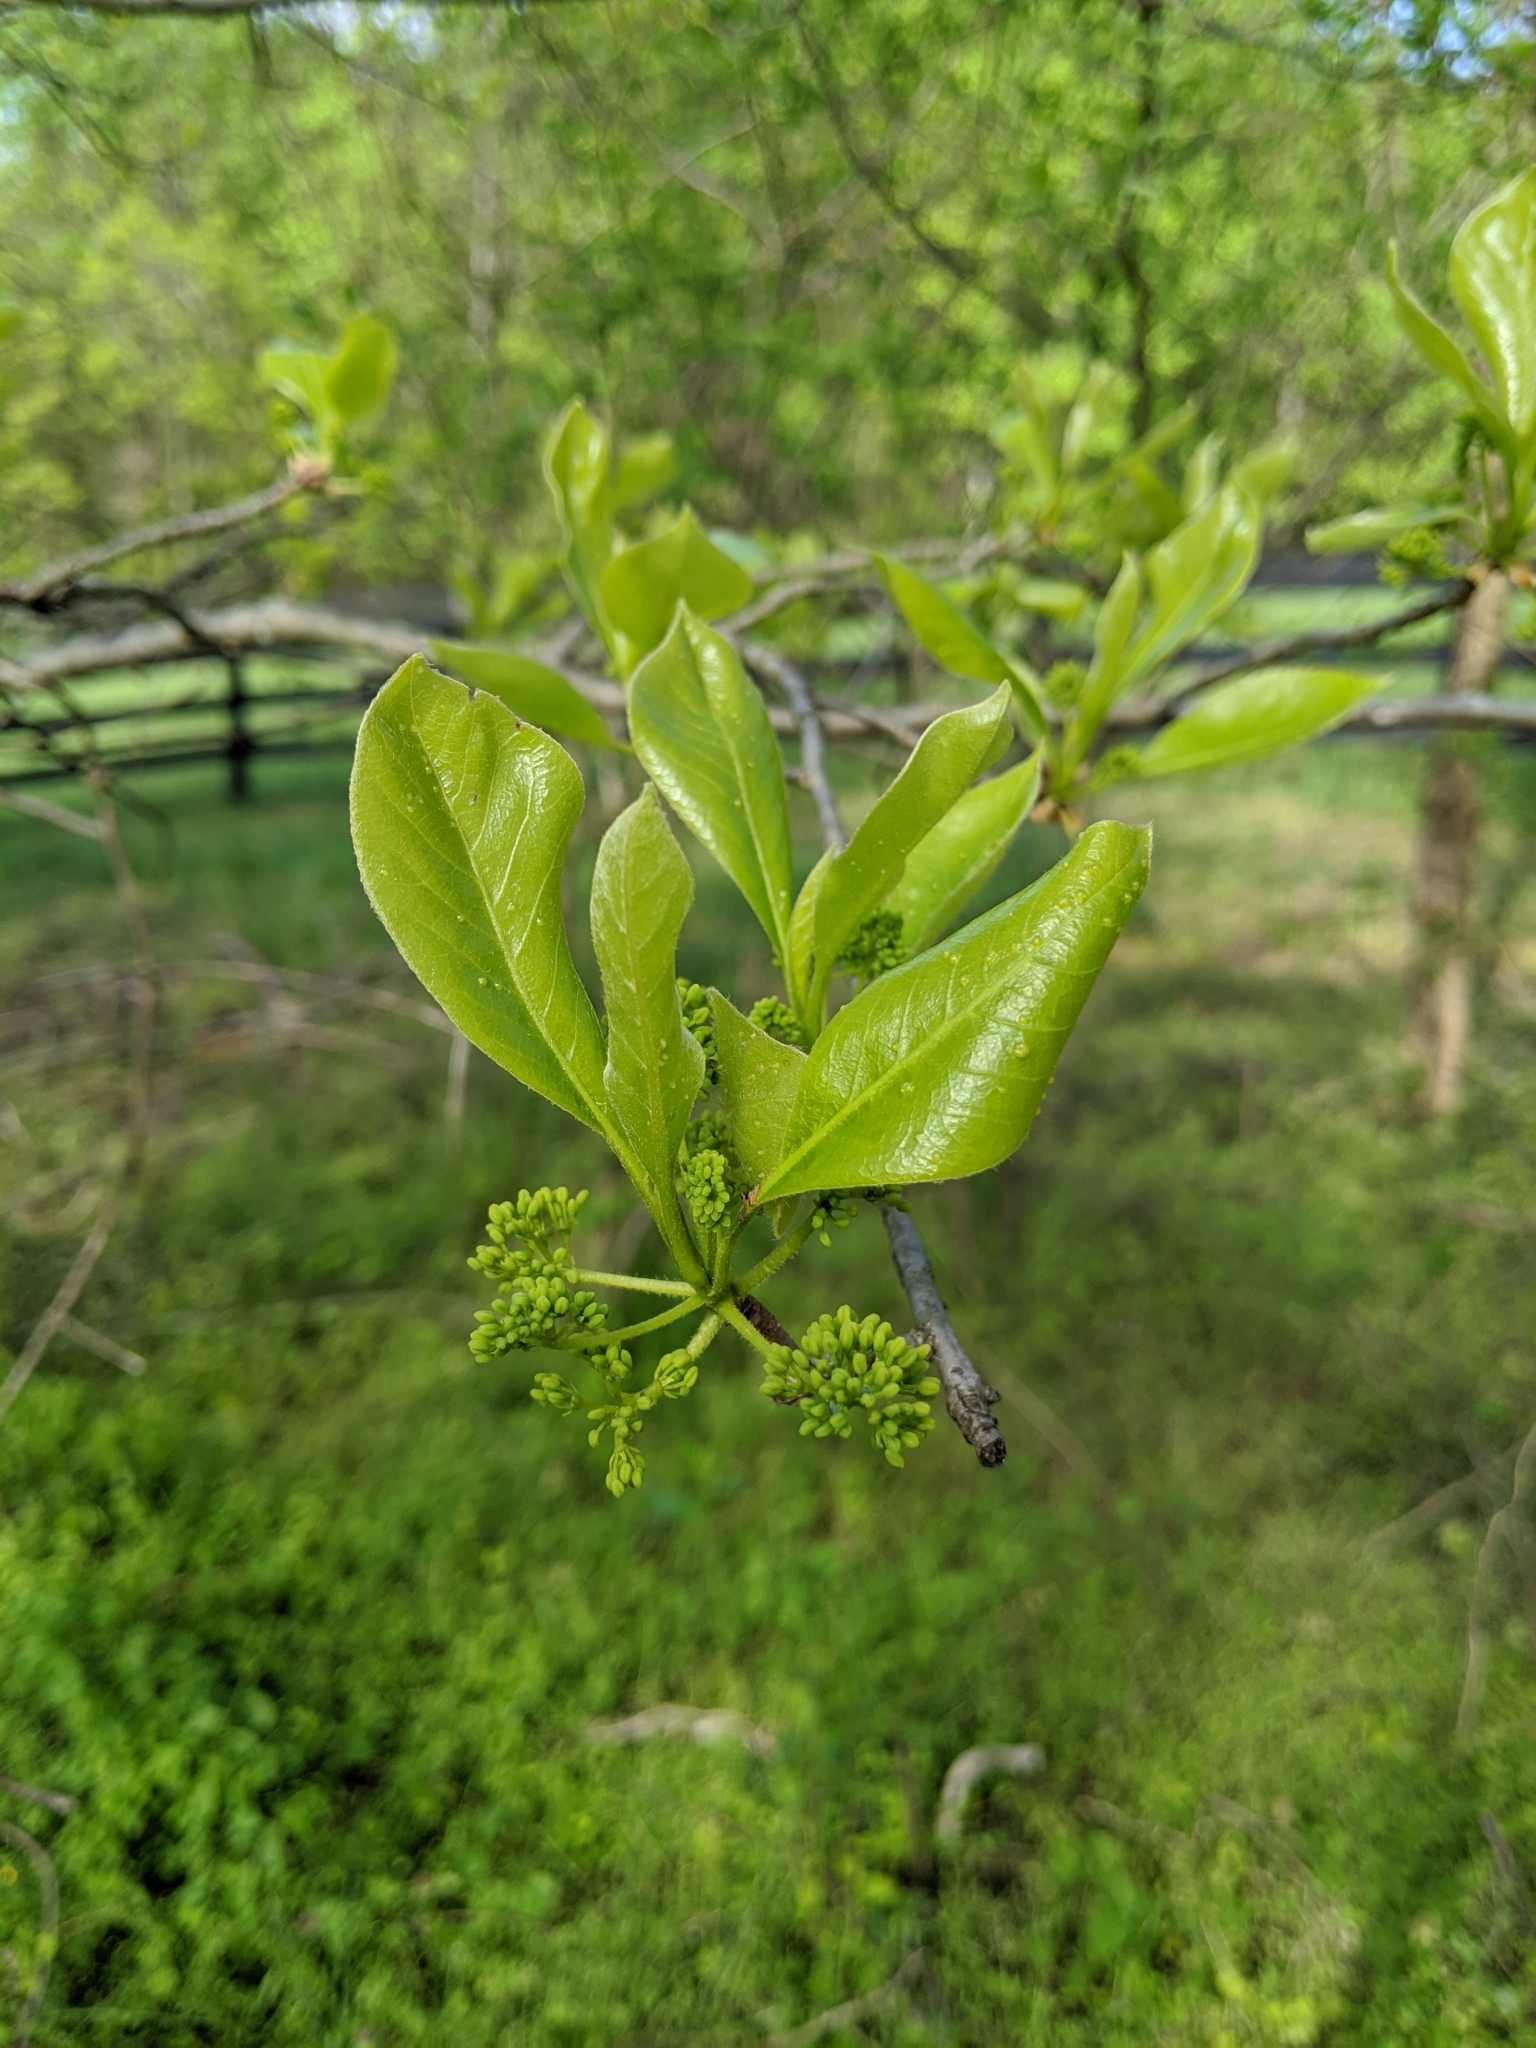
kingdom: Plantae
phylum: Tracheophyta
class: Magnoliopsida
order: Cornales
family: Nyssaceae
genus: Nyssa
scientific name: Nyssa sylvatica
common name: Black tupelo
